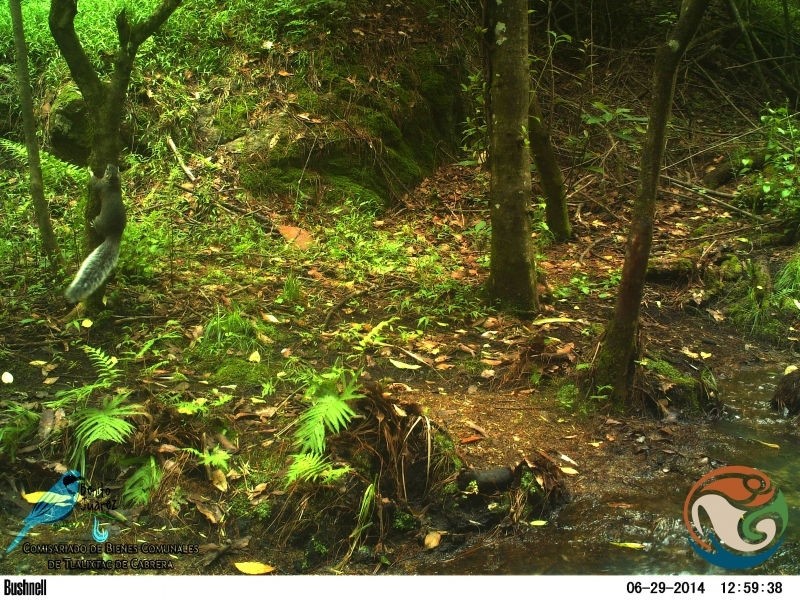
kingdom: Animalia
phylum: Chordata
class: Mammalia
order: Rodentia
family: Sciuridae
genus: Sciurus
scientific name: Sciurus aureogaster
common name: Red-bellied squirrel
